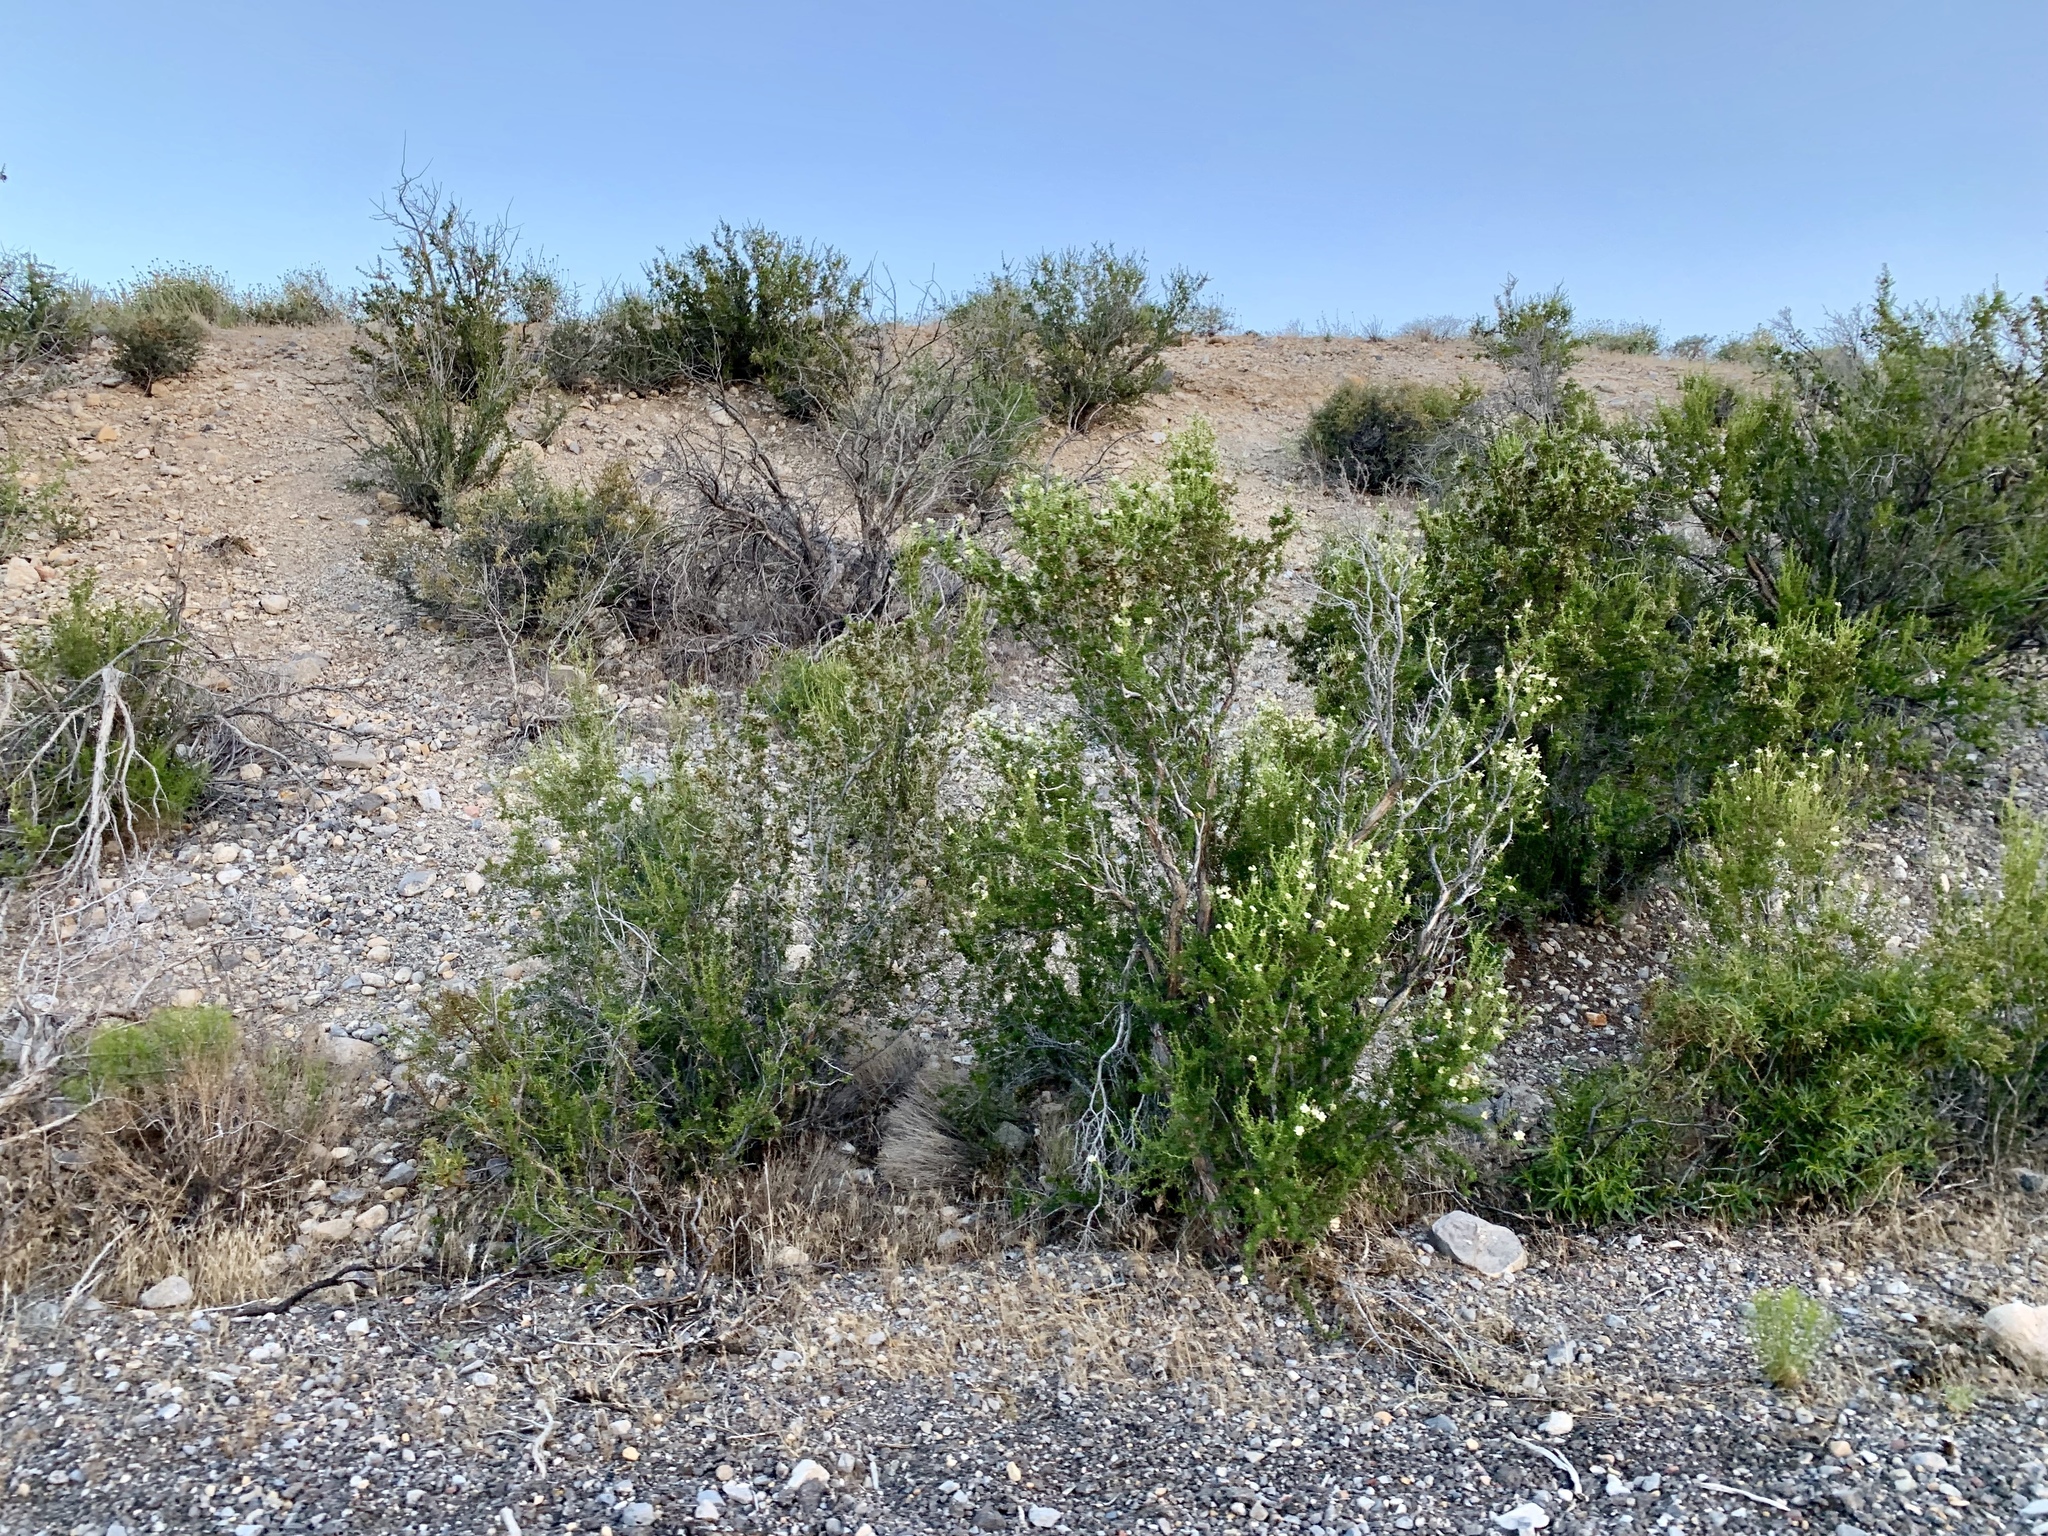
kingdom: Plantae
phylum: Tracheophyta
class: Magnoliopsida
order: Rosales
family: Rosaceae
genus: Purshia
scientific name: Purshia stansburiana
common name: Stansbury's cliffrose
